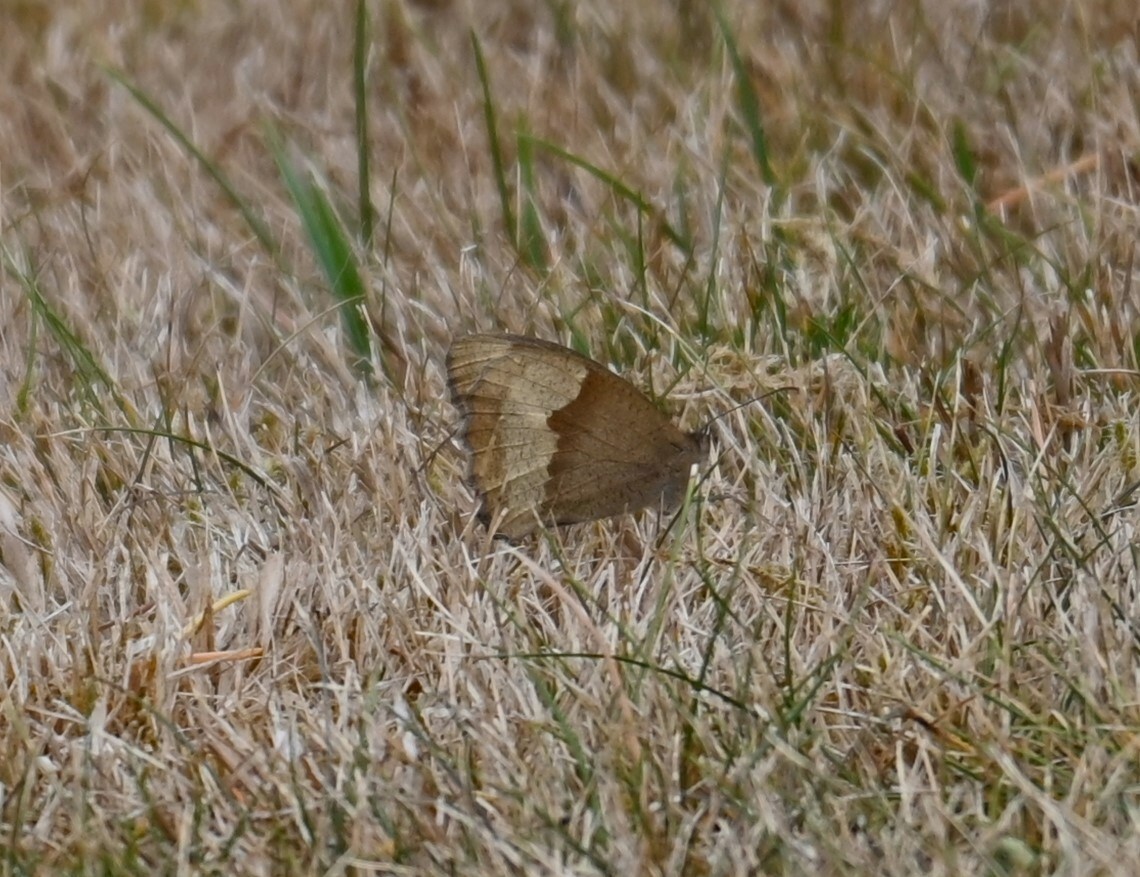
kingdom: Animalia
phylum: Arthropoda
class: Insecta
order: Lepidoptera
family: Nymphalidae
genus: Maniola
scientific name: Maniola jurtina
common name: Meadow brown
